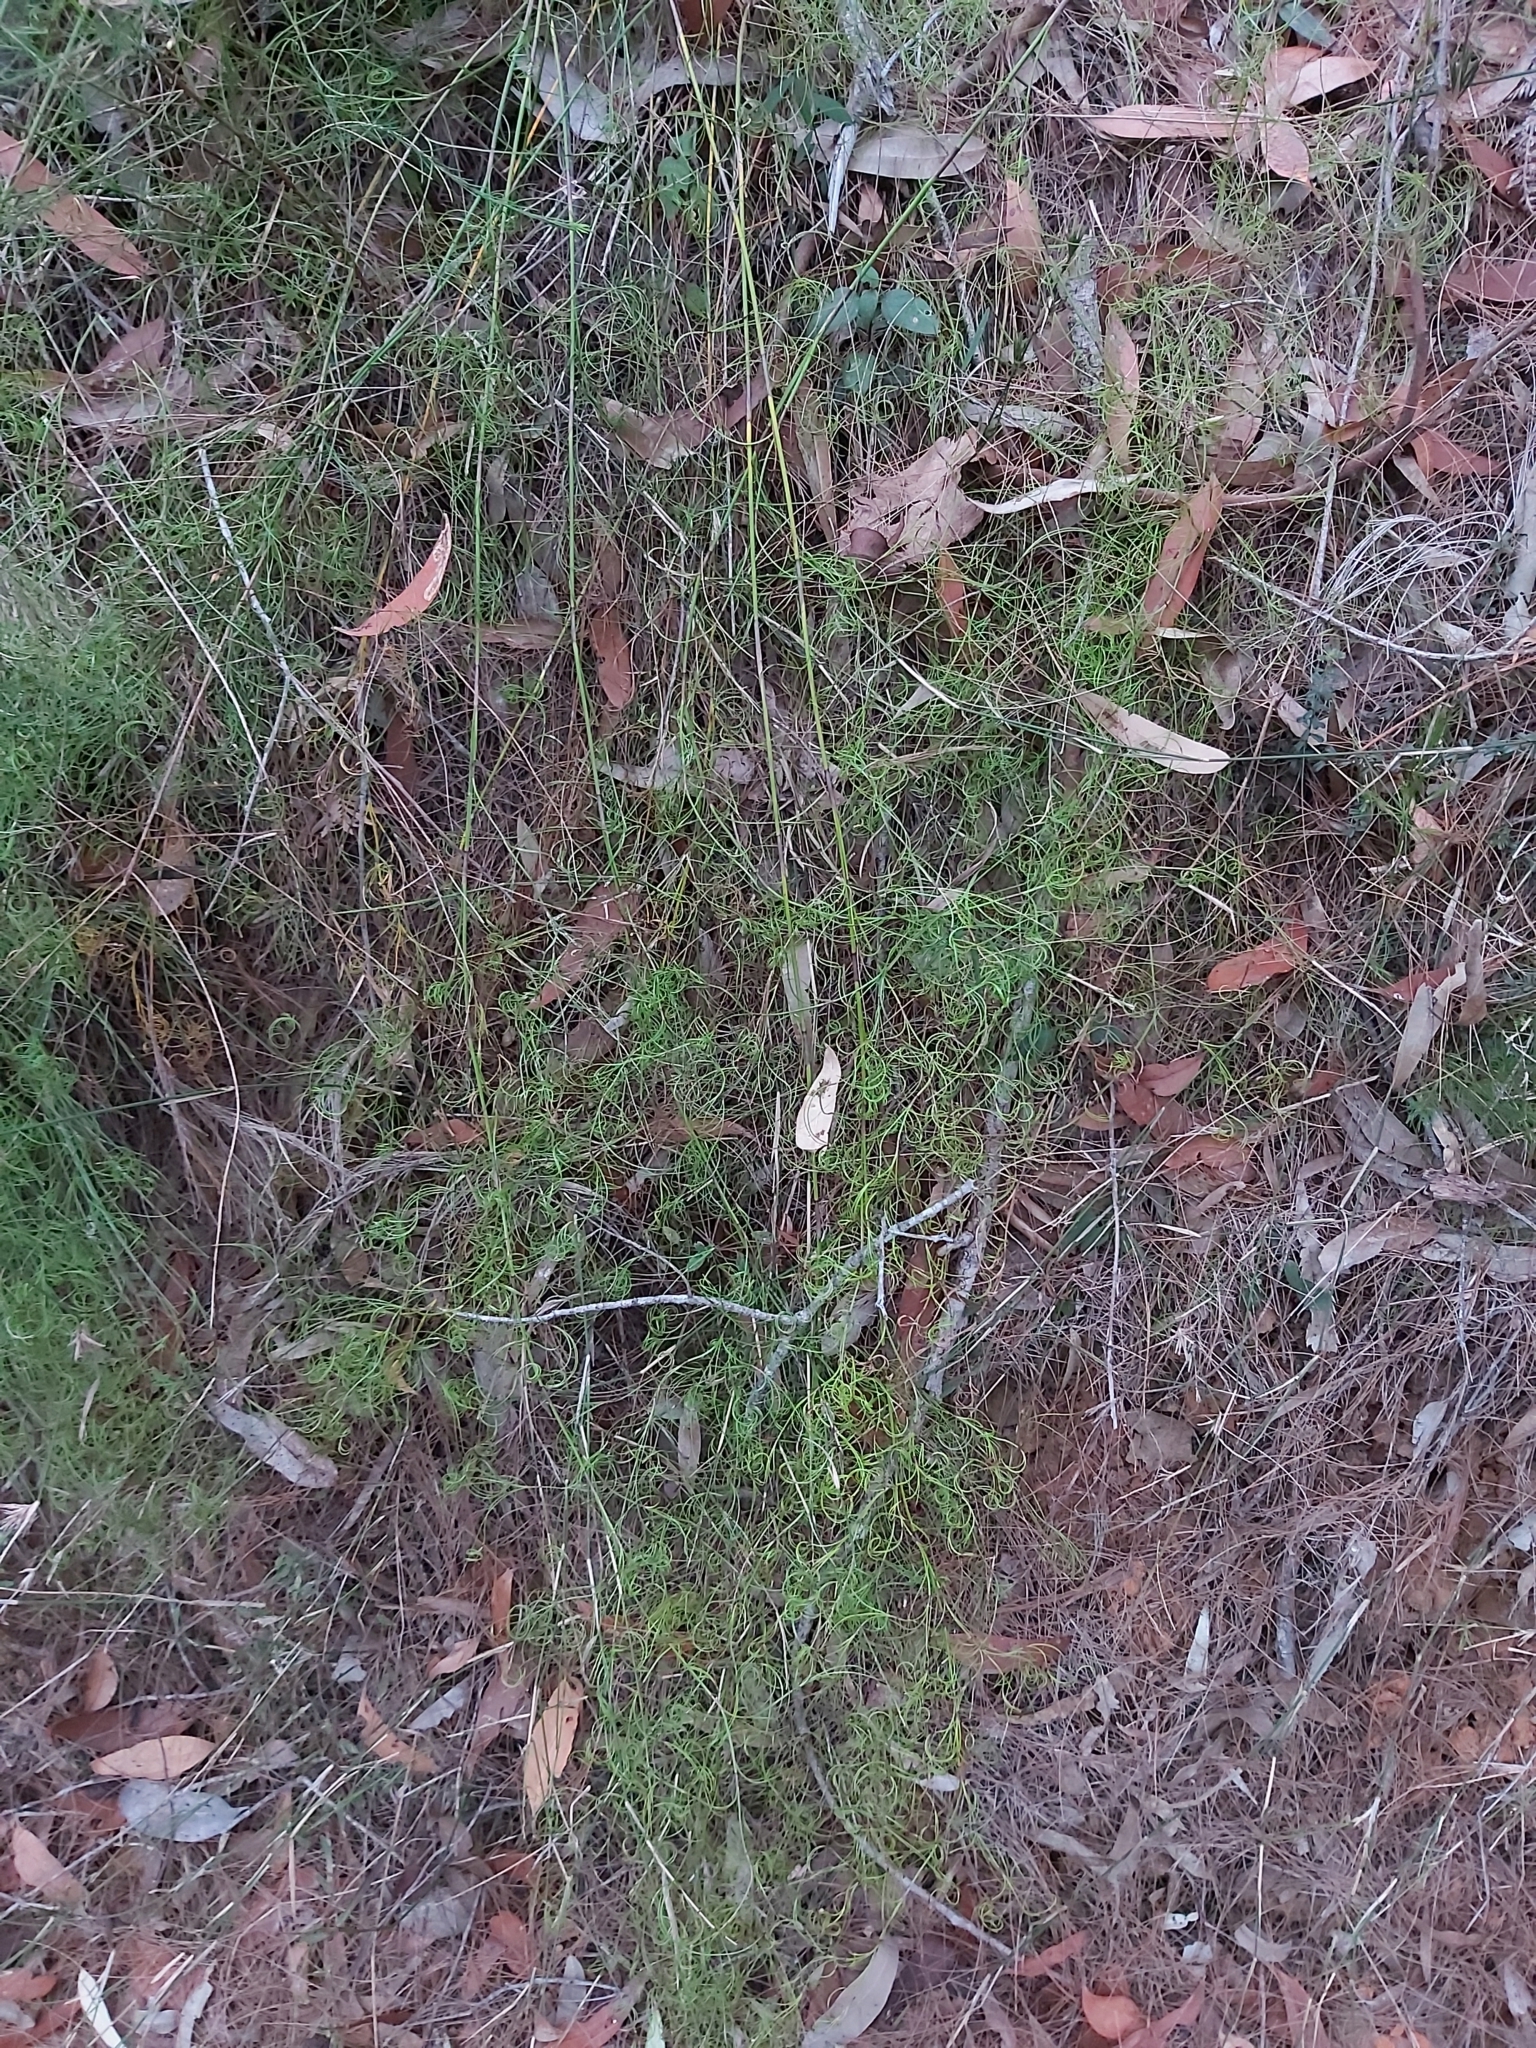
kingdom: Plantae
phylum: Tracheophyta
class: Liliopsida
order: Poales
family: Cyperaceae
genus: Caustis
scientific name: Caustis flexuosa
